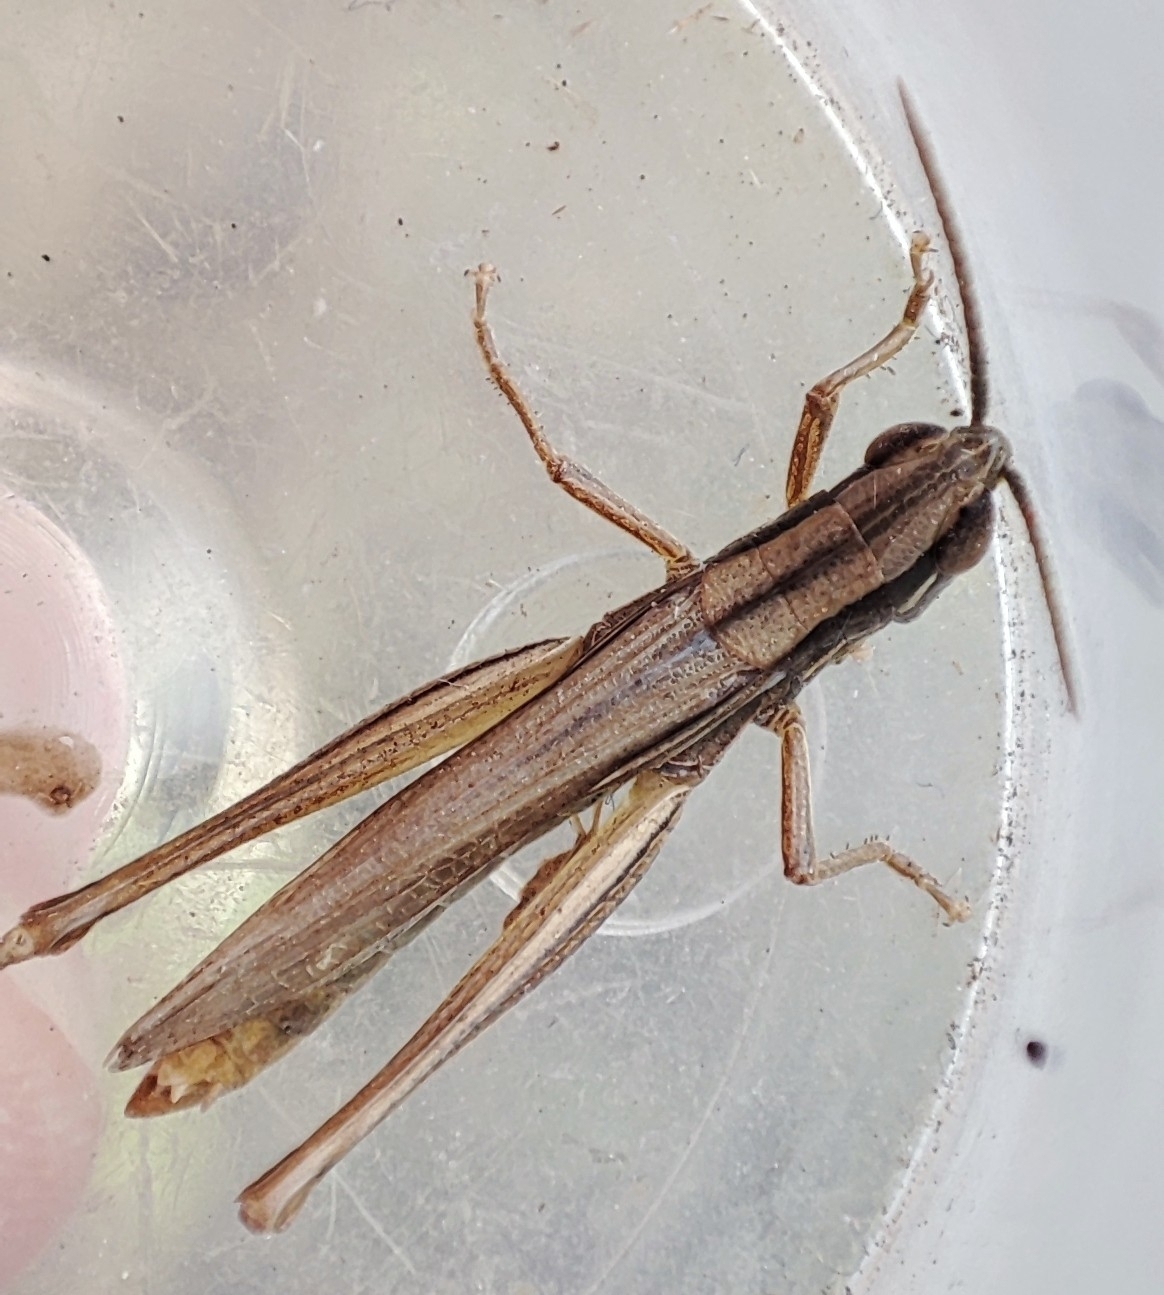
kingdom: Animalia
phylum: Arthropoda
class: Insecta
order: Orthoptera
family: Acrididae
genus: Euchorthippus
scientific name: Euchorthippus pulvinatus
